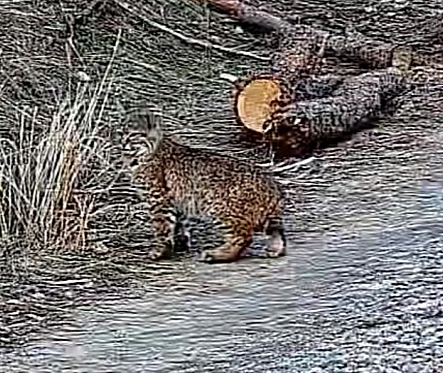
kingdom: Animalia
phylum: Chordata
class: Mammalia
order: Carnivora
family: Felidae
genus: Lynx
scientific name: Lynx rufus
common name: Bobcat
